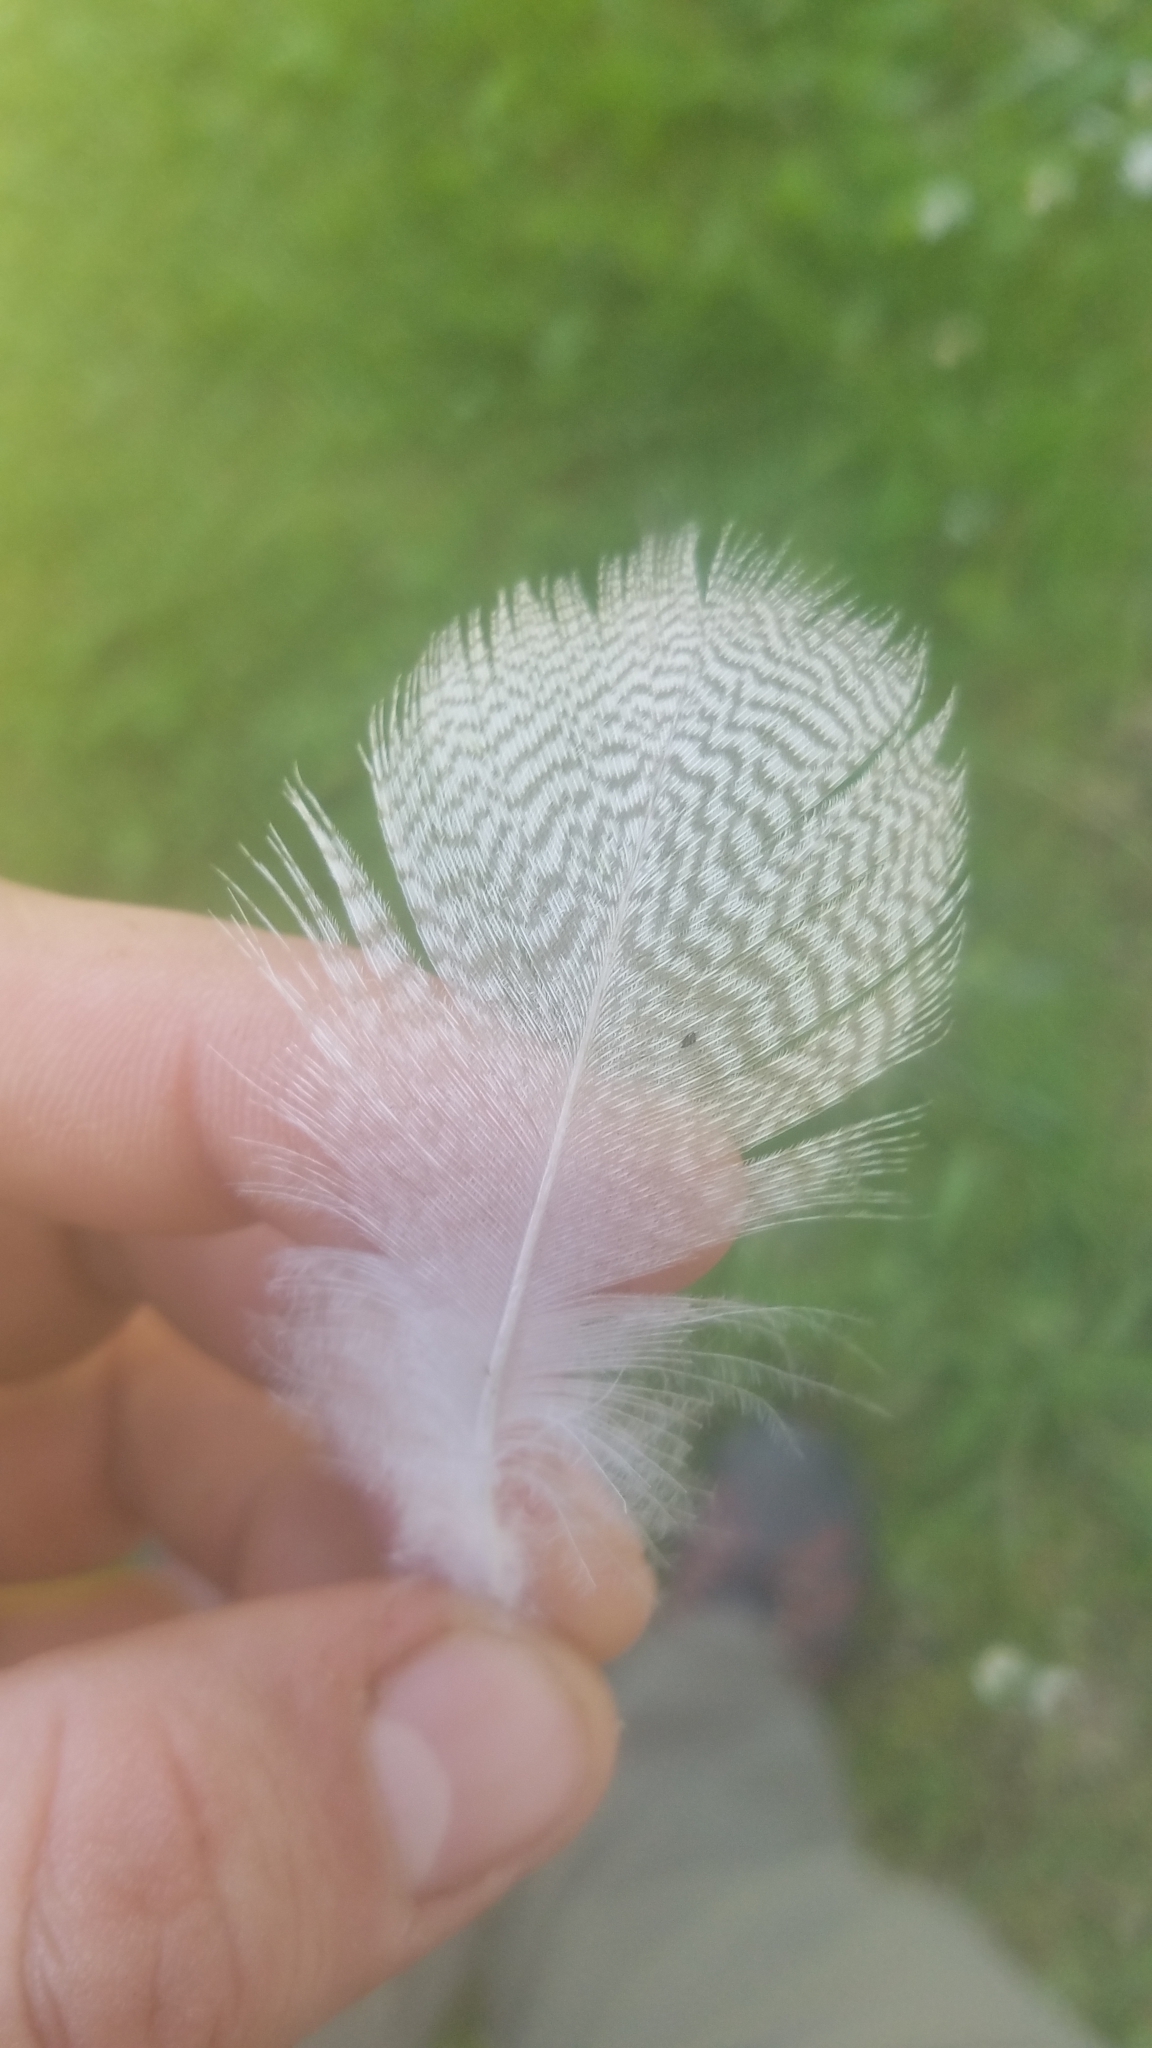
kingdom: Animalia
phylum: Chordata
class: Aves
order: Anseriformes
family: Anatidae
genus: Anas
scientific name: Anas platyrhynchos
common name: Mallard
